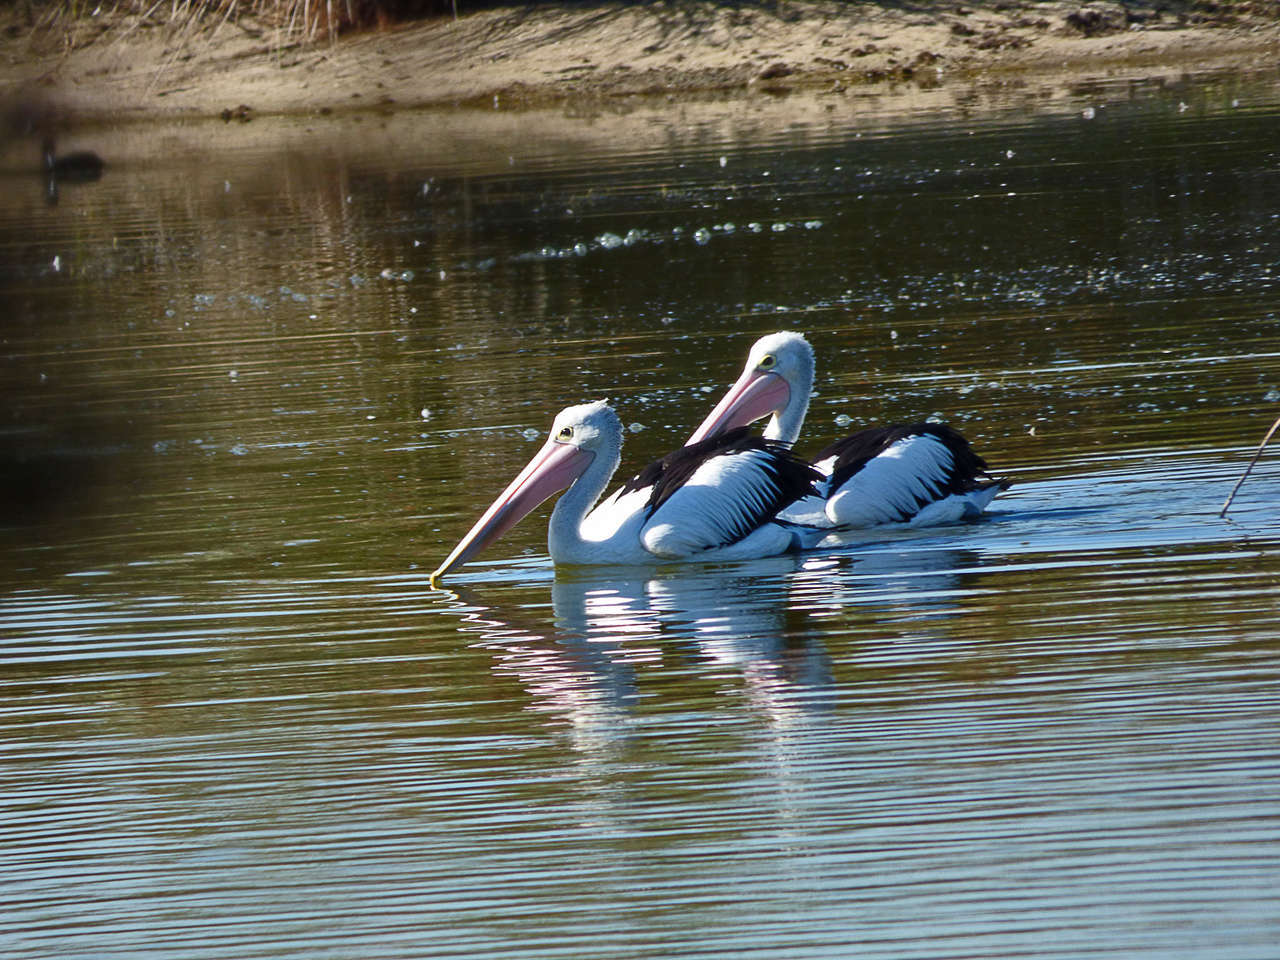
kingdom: Animalia
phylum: Chordata
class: Aves
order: Pelecaniformes
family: Pelecanidae
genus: Pelecanus
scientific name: Pelecanus conspicillatus
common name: Australian pelican
